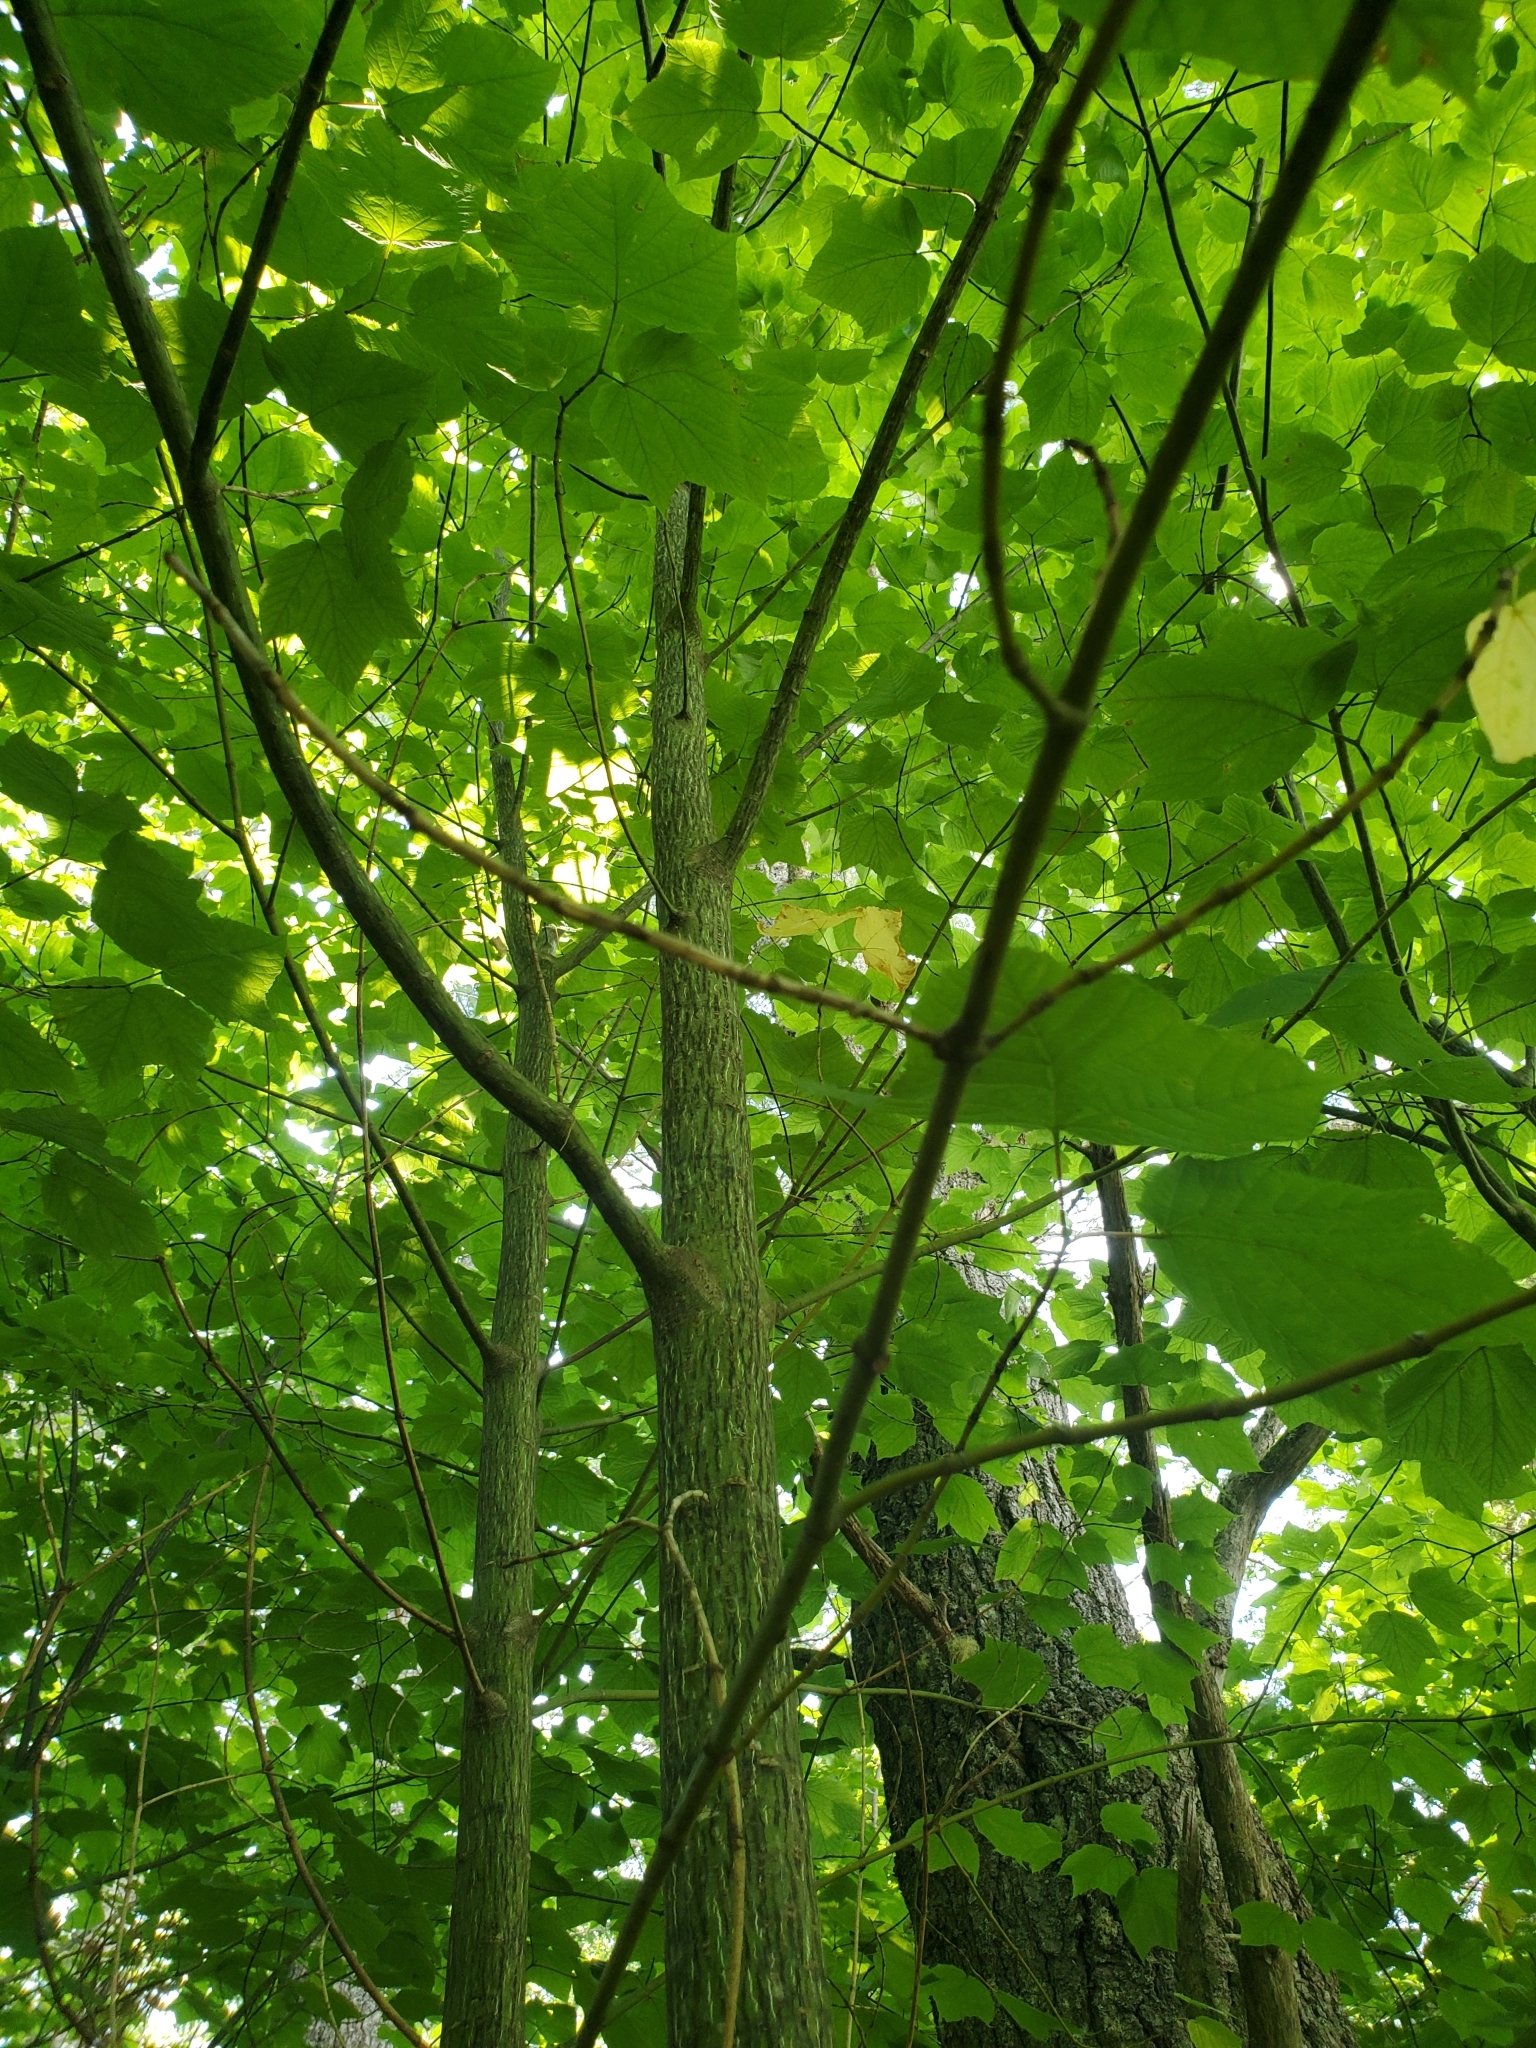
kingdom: Plantae
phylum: Tracheophyta
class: Magnoliopsida
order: Sapindales
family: Sapindaceae
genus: Acer
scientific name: Acer pensylvanicum
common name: Moosewood
